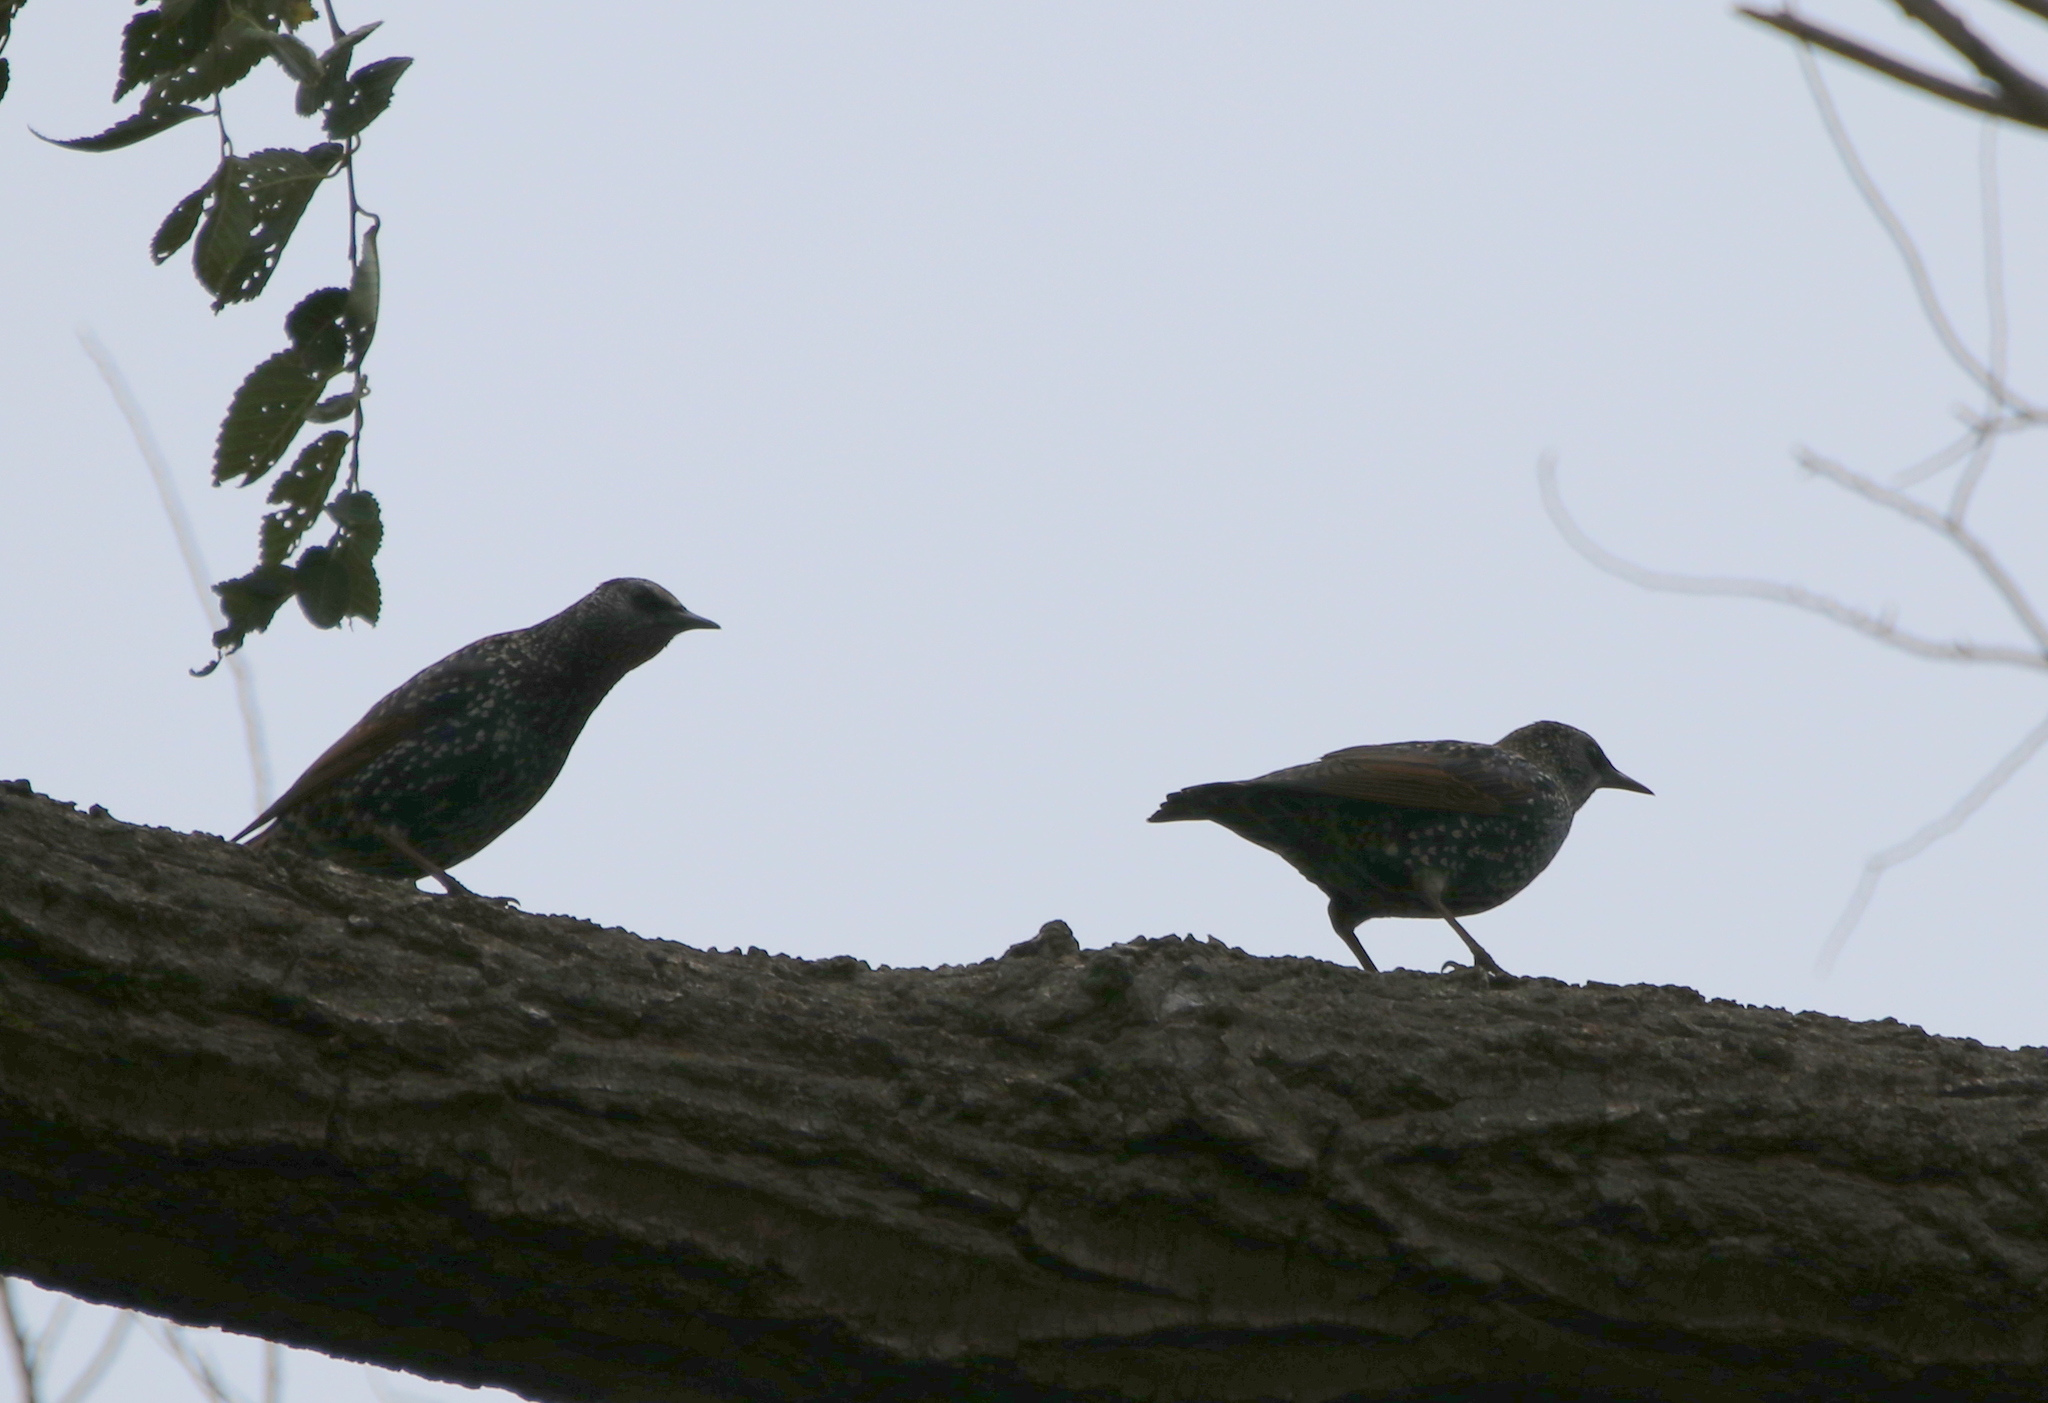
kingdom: Animalia
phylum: Chordata
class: Aves
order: Passeriformes
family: Sturnidae
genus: Sturnus
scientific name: Sturnus vulgaris
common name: Common starling
